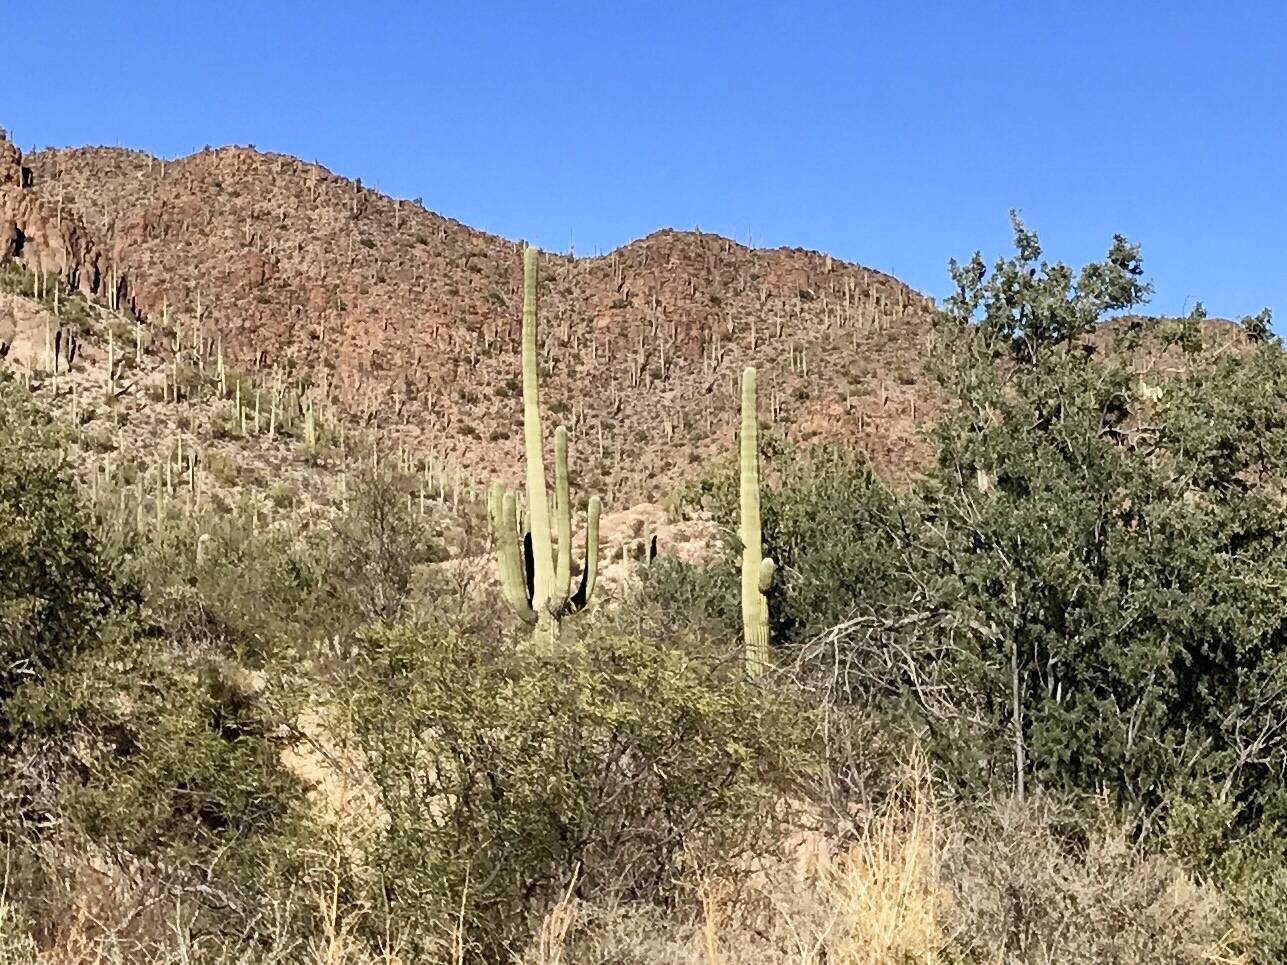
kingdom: Plantae
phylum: Tracheophyta
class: Magnoliopsida
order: Caryophyllales
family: Cactaceae
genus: Carnegiea
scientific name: Carnegiea gigantea
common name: Saguaro
